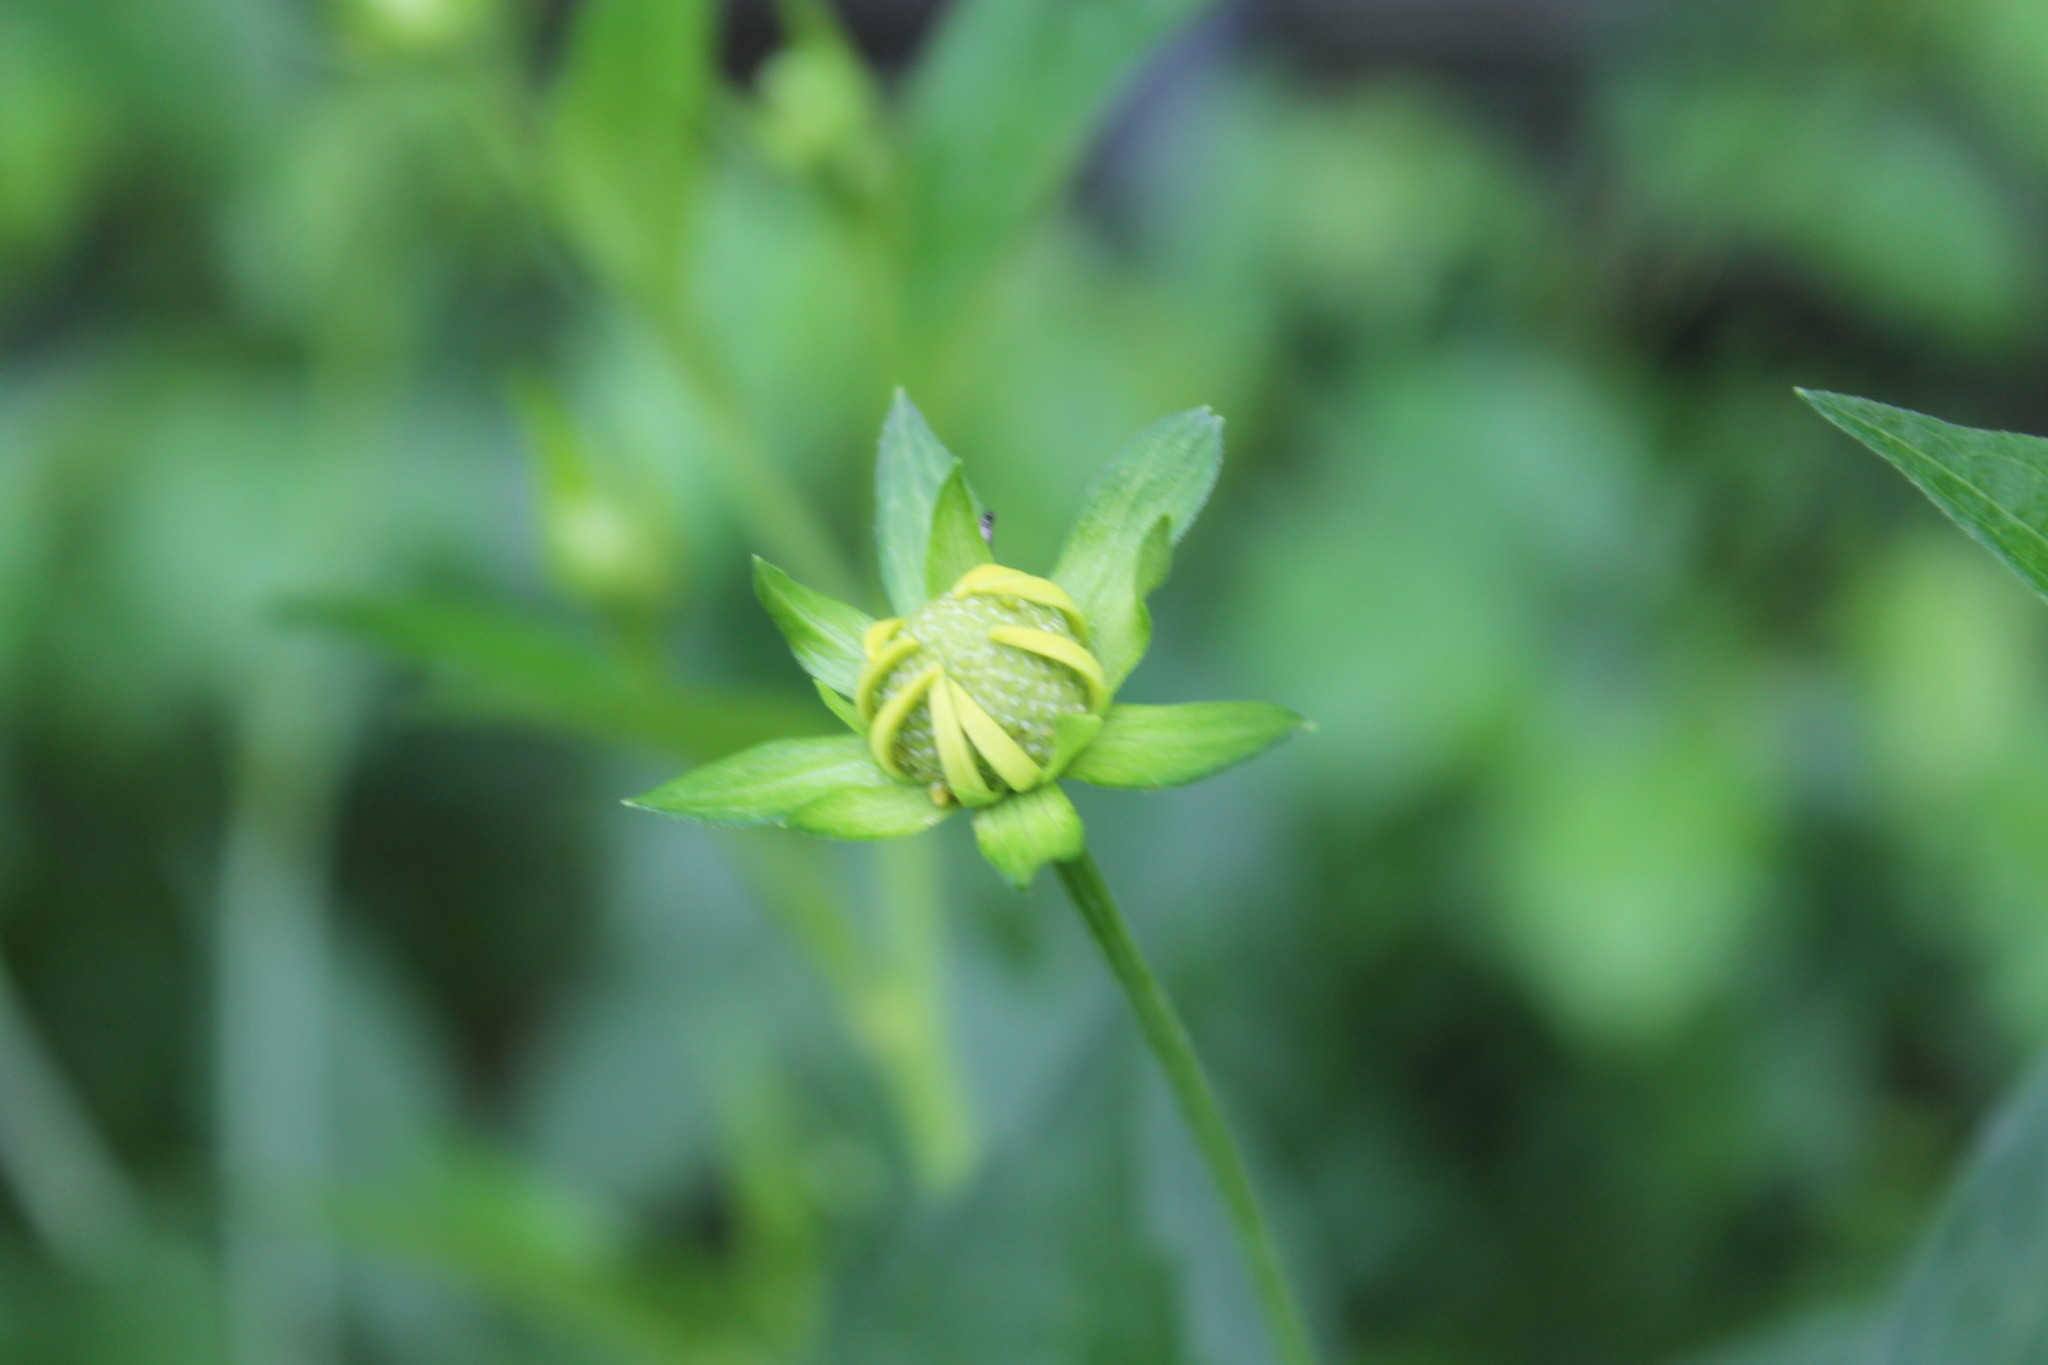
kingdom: Plantae
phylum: Tracheophyta
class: Magnoliopsida
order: Asterales
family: Asteraceae
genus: Rudbeckia
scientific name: Rudbeckia laciniata
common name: Coneflower
